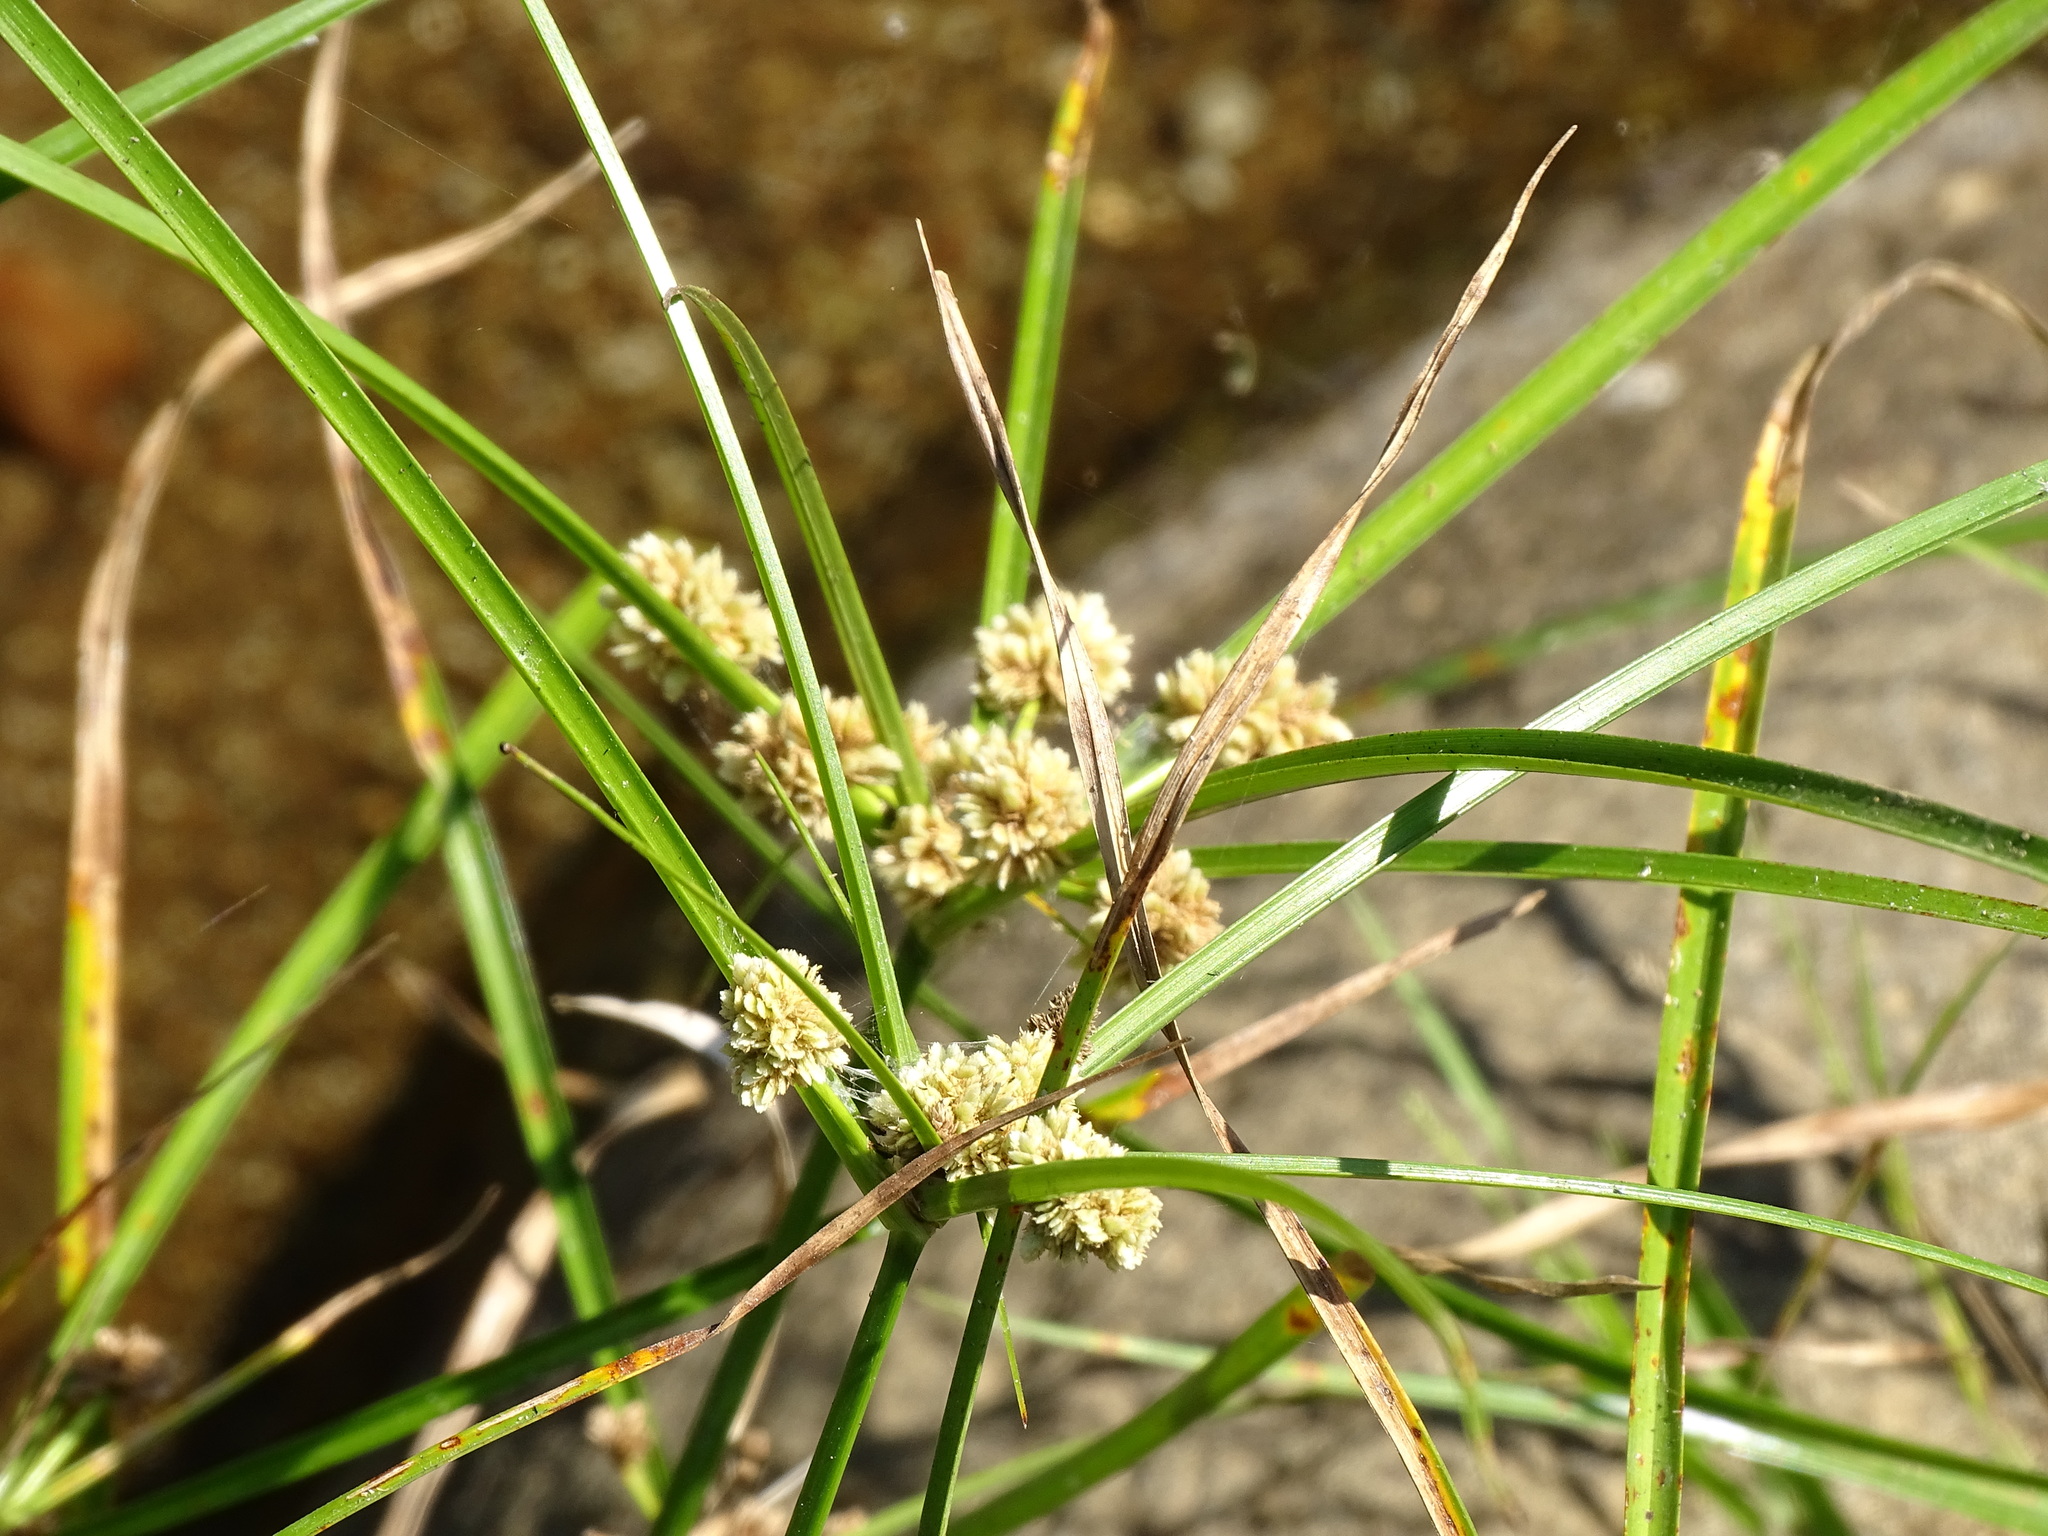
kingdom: Plantae
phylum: Tracheophyta
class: Liliopsida
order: Poales
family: Cyperaceae
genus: Cyperus
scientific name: Cyperus luzulae
